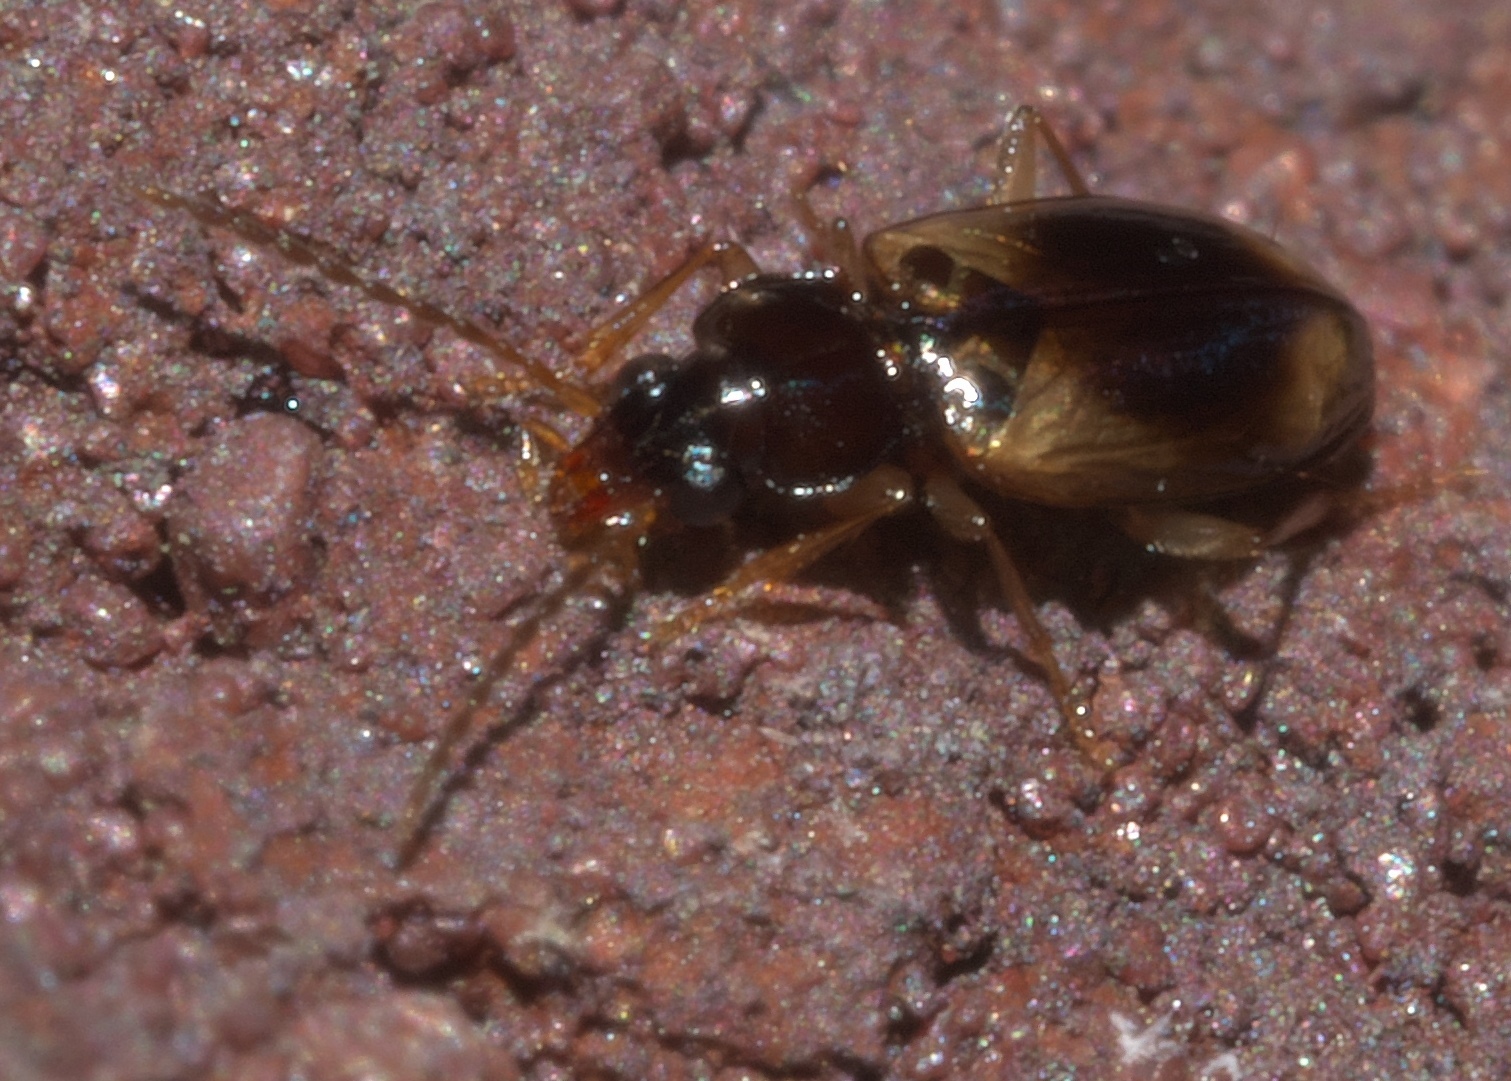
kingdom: Animalia
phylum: Arthropoda
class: Insecta
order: Coleoptera
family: Carabidae
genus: Tachys
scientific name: Tachys proximus
